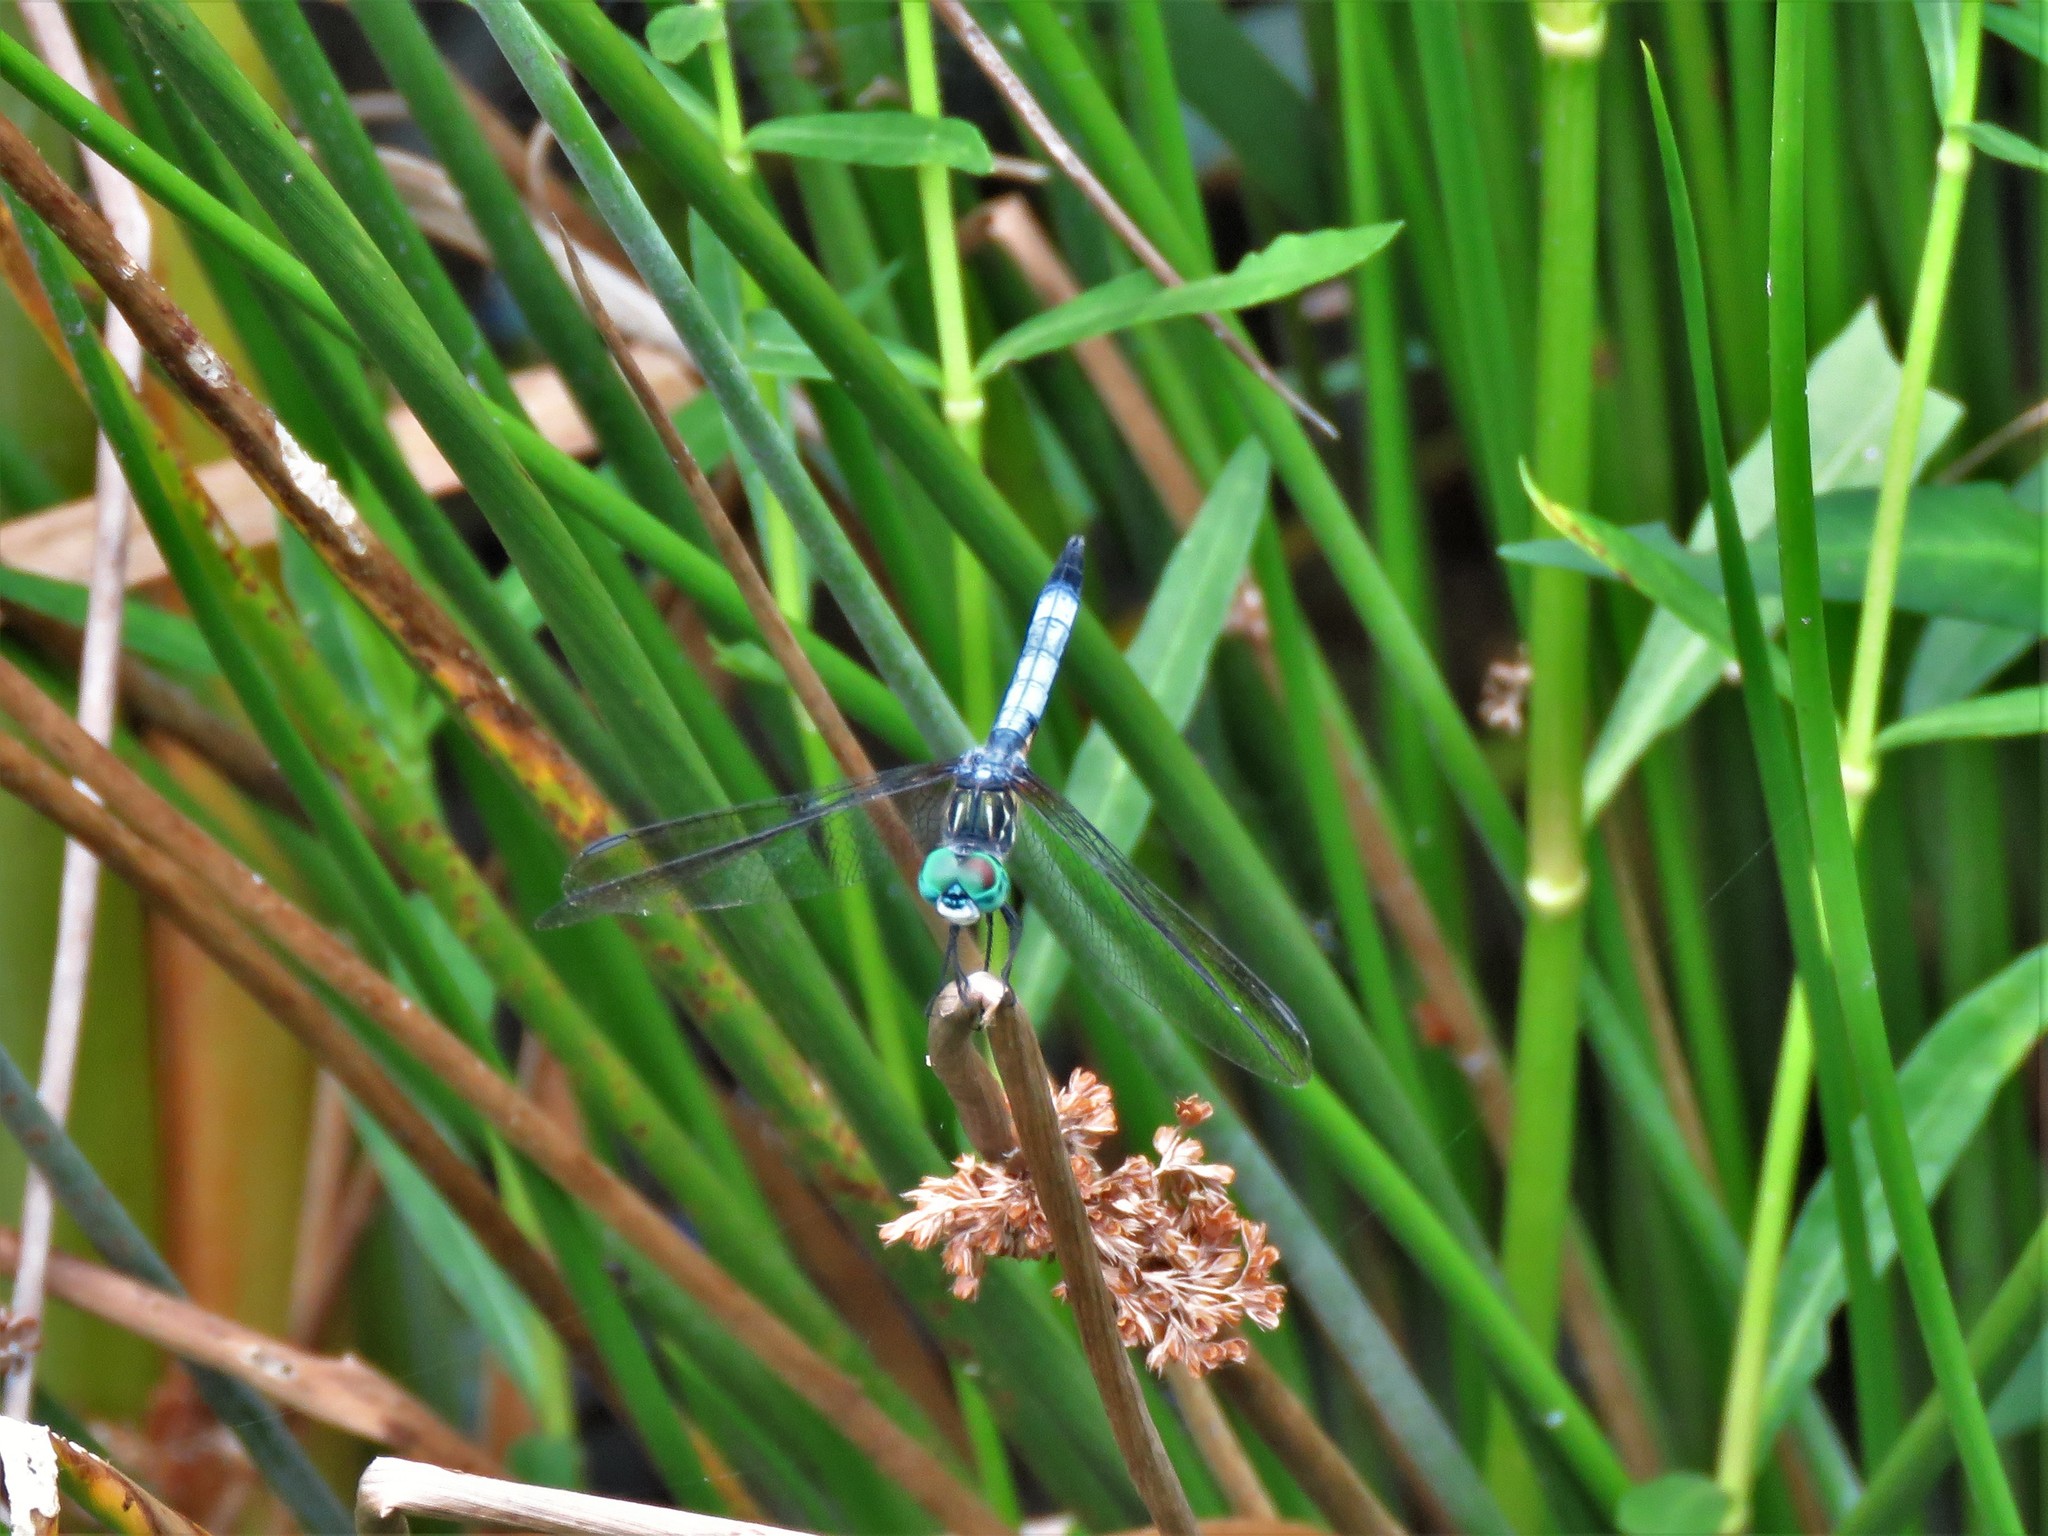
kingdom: Animalia
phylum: Arthropoda
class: Insecta
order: Odonata
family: Libellulidae
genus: Pachydiplax
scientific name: Pachydiplax longipennis
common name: Blue dasher
